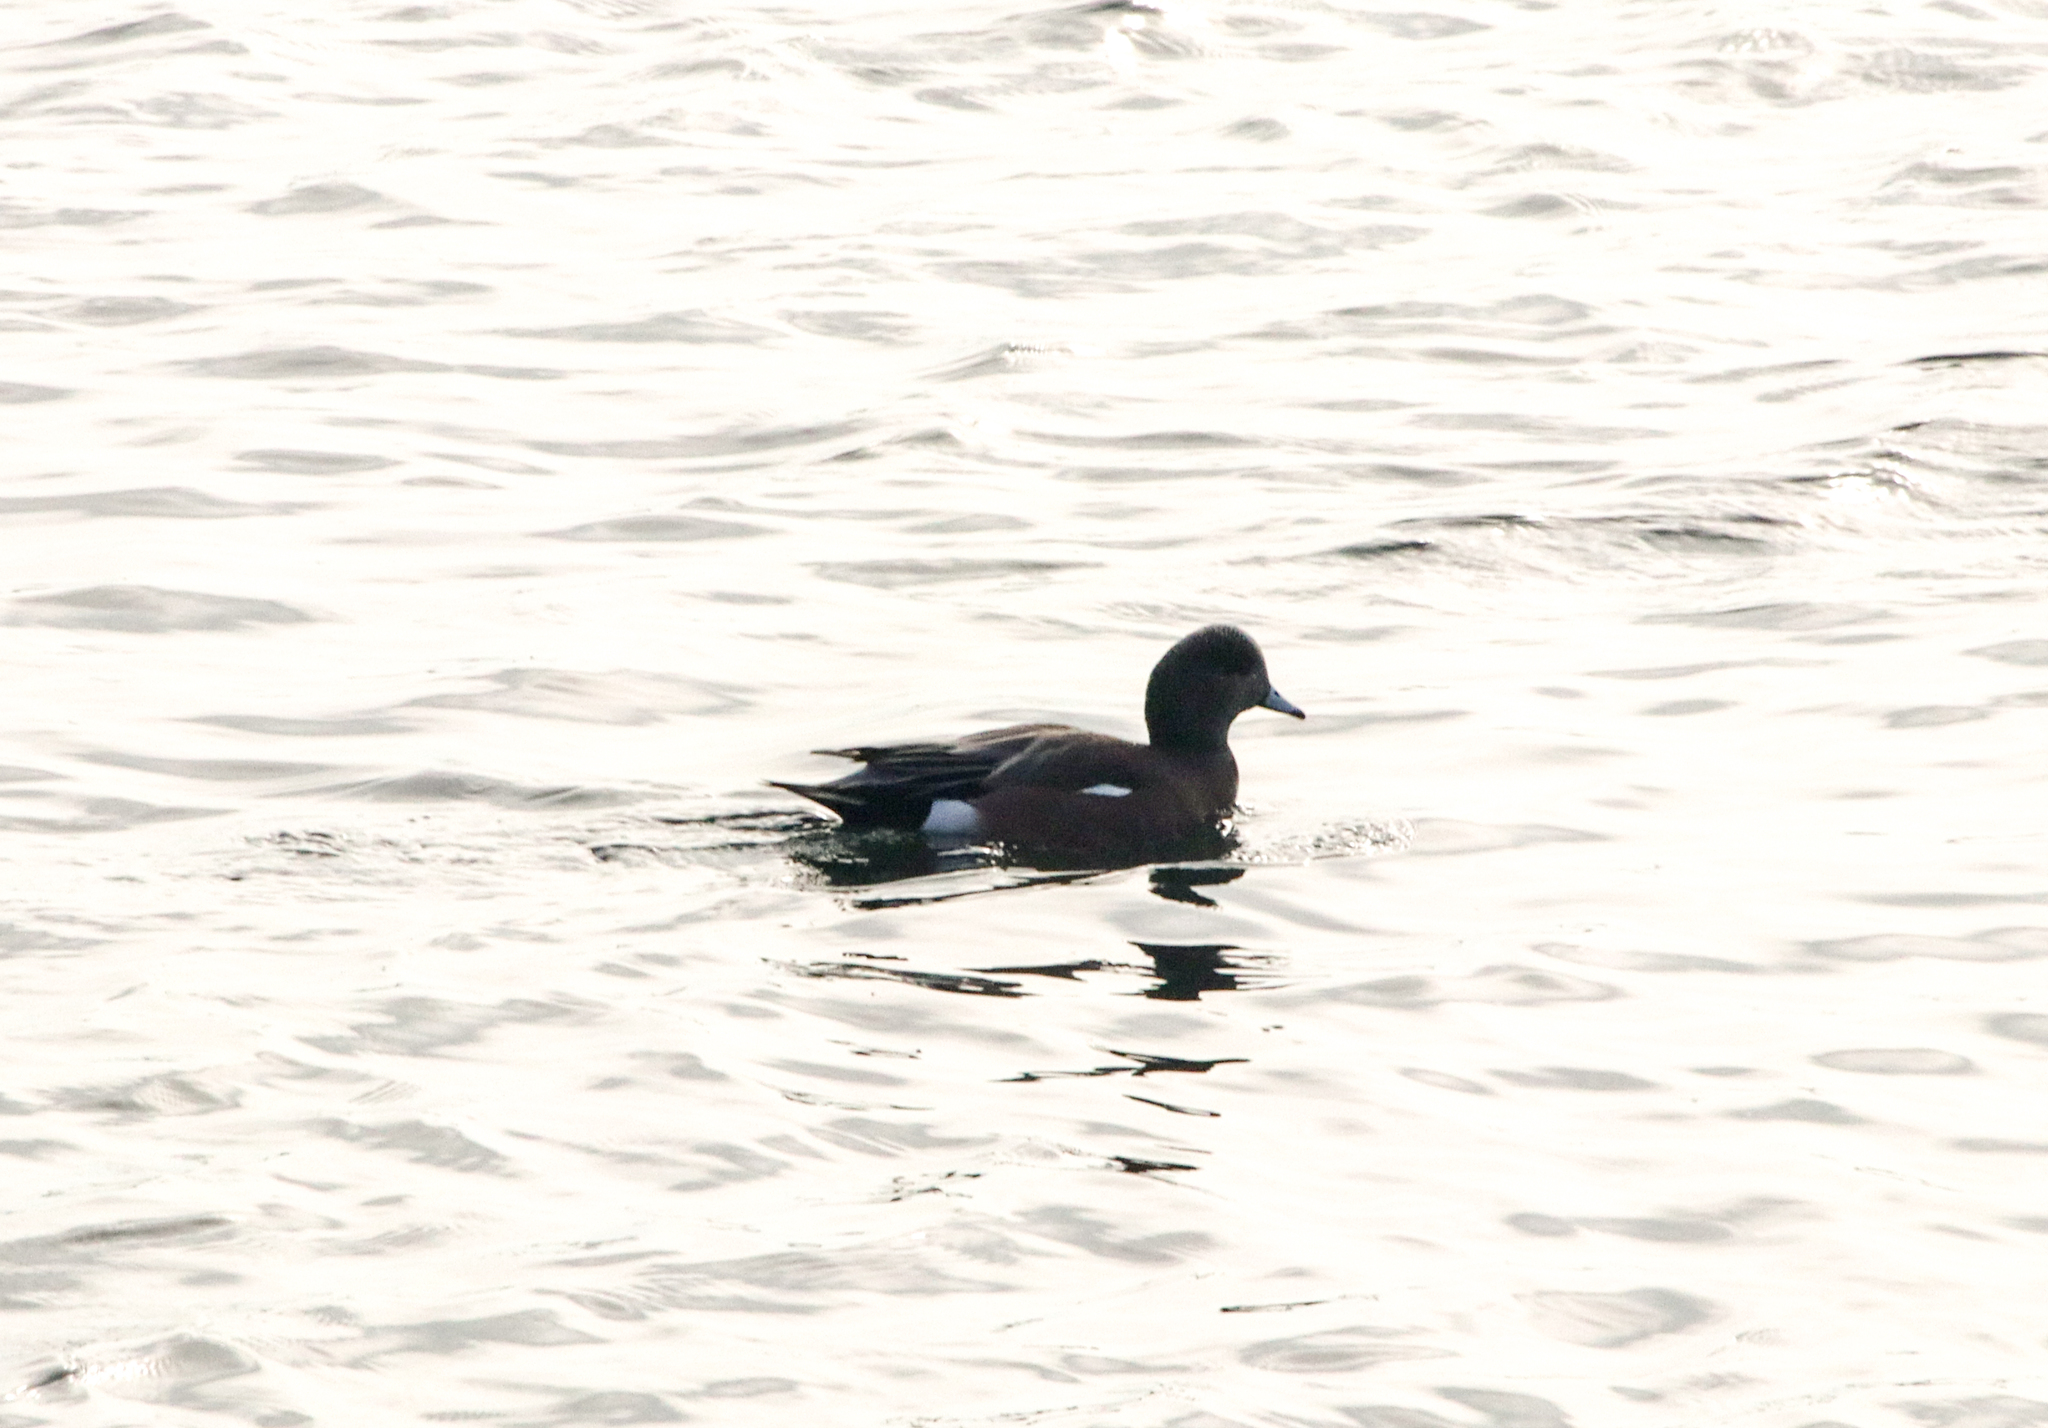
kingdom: Animalia
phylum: Chordata
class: Aves
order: Anseriformes
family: Anatidae
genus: Mareca
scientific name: Mareca americana
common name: American wigeon
